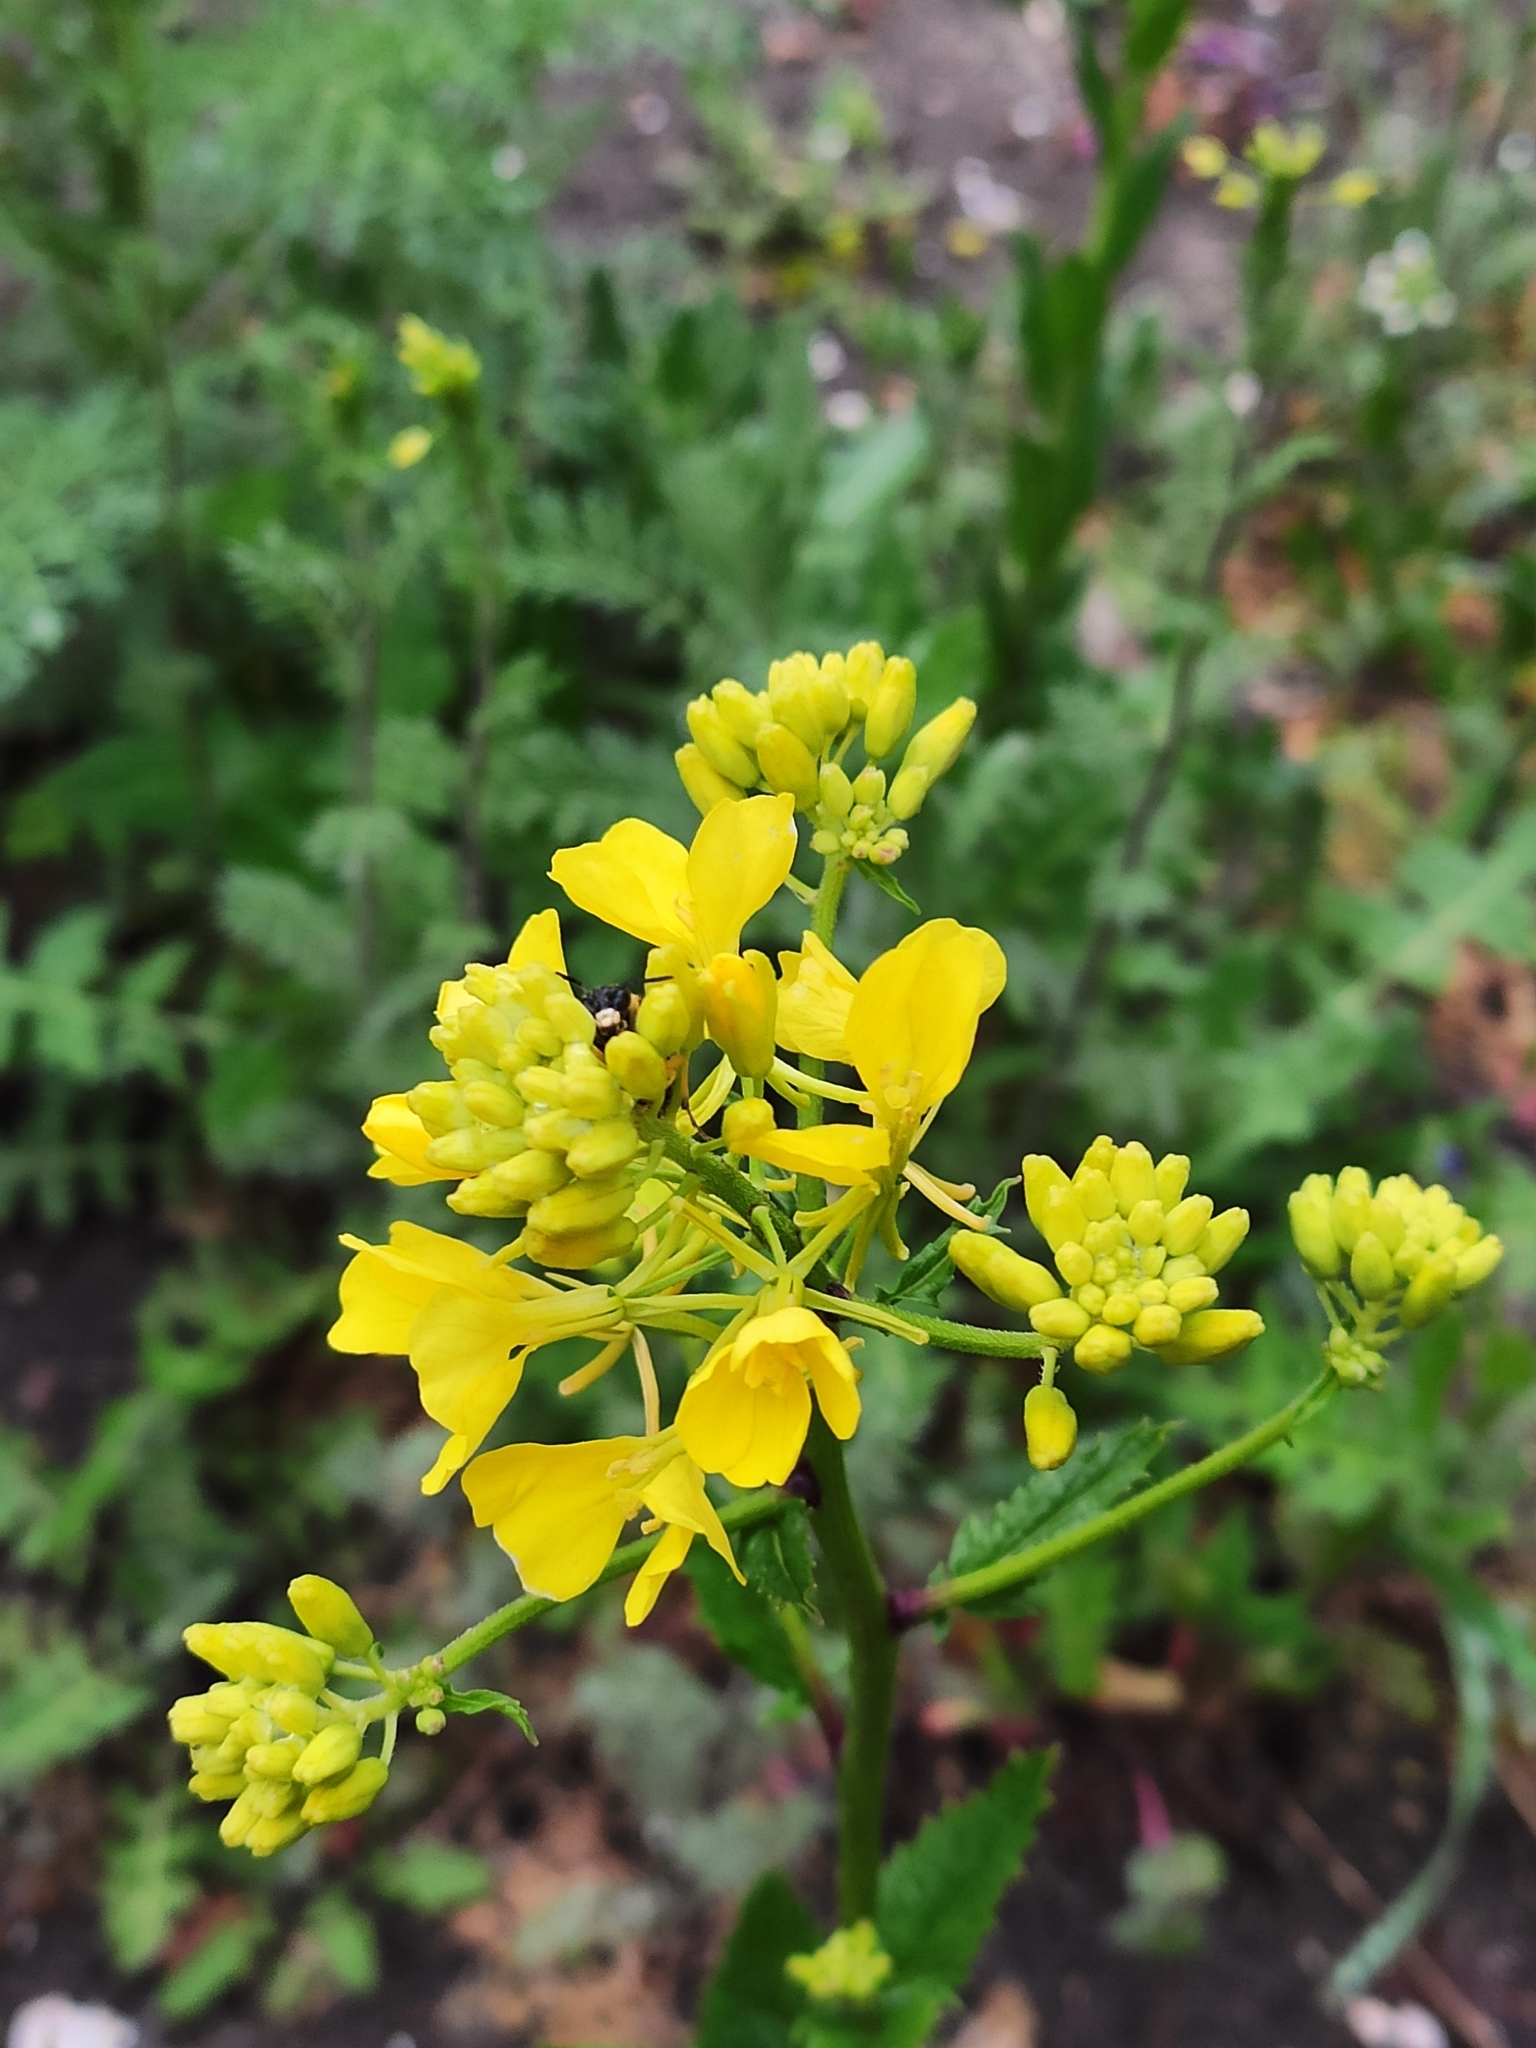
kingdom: Plantae
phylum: Tracheophyta
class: Magnoliopsida
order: Brassicales
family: Brassicaceae
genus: Sinapis
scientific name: Sinapis arvensis
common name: Charlock
